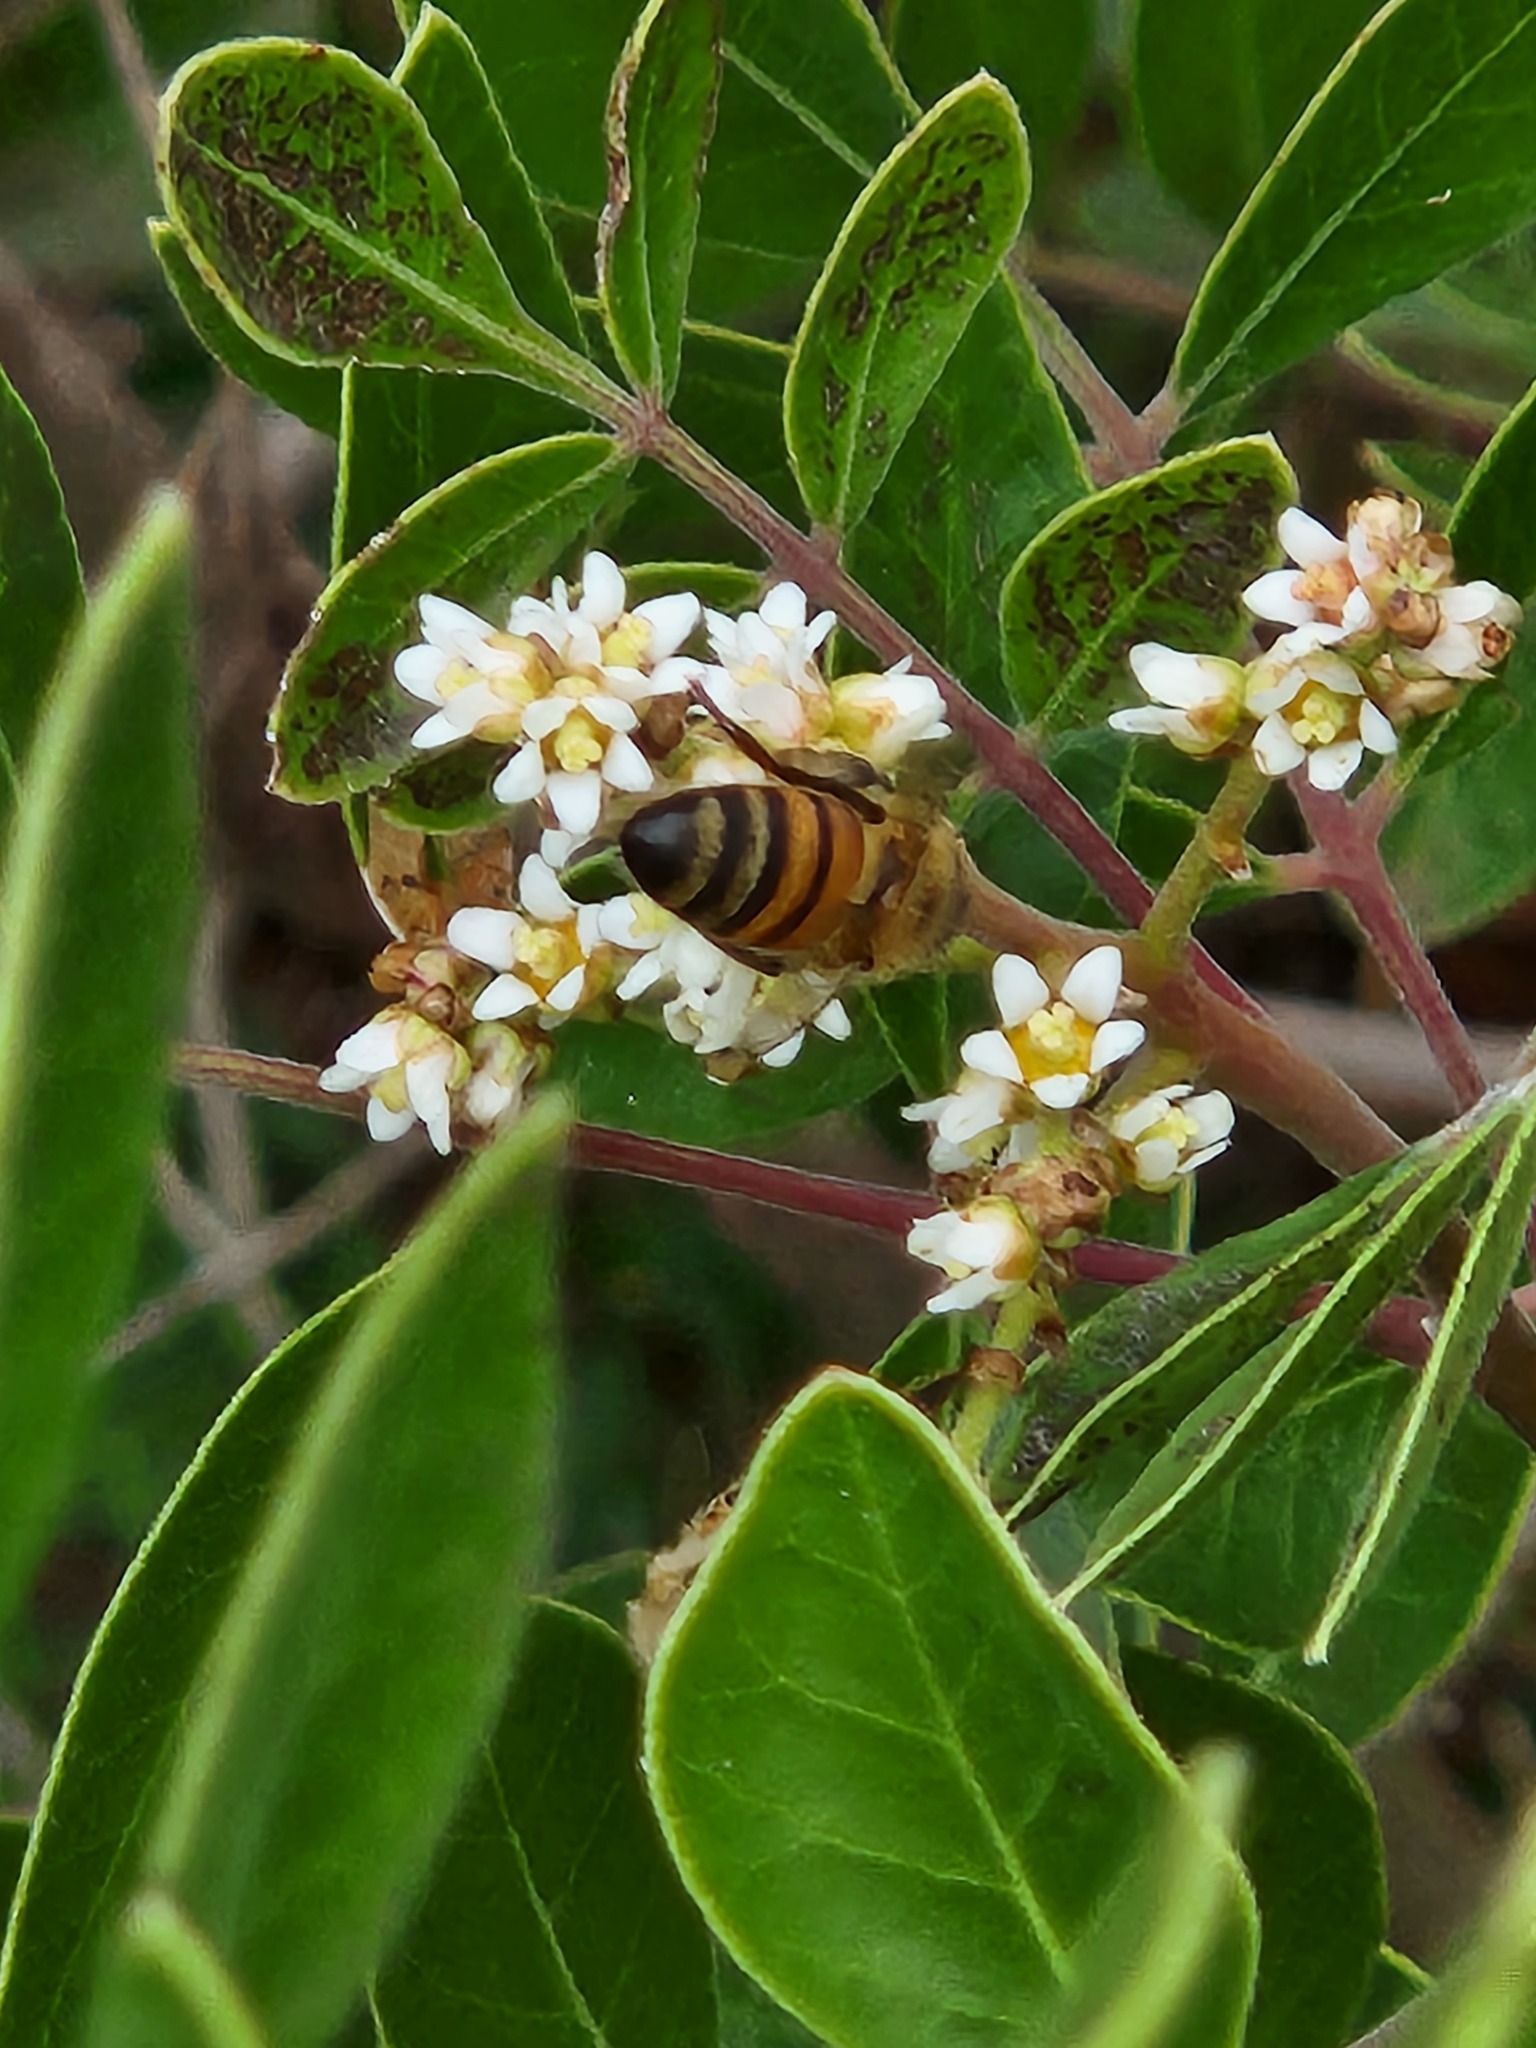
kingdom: Animalia
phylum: Arthropoda
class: Insecta
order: Hymenoptera
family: Apidae
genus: Apis
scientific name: Apis mellifera
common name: Honey bee
